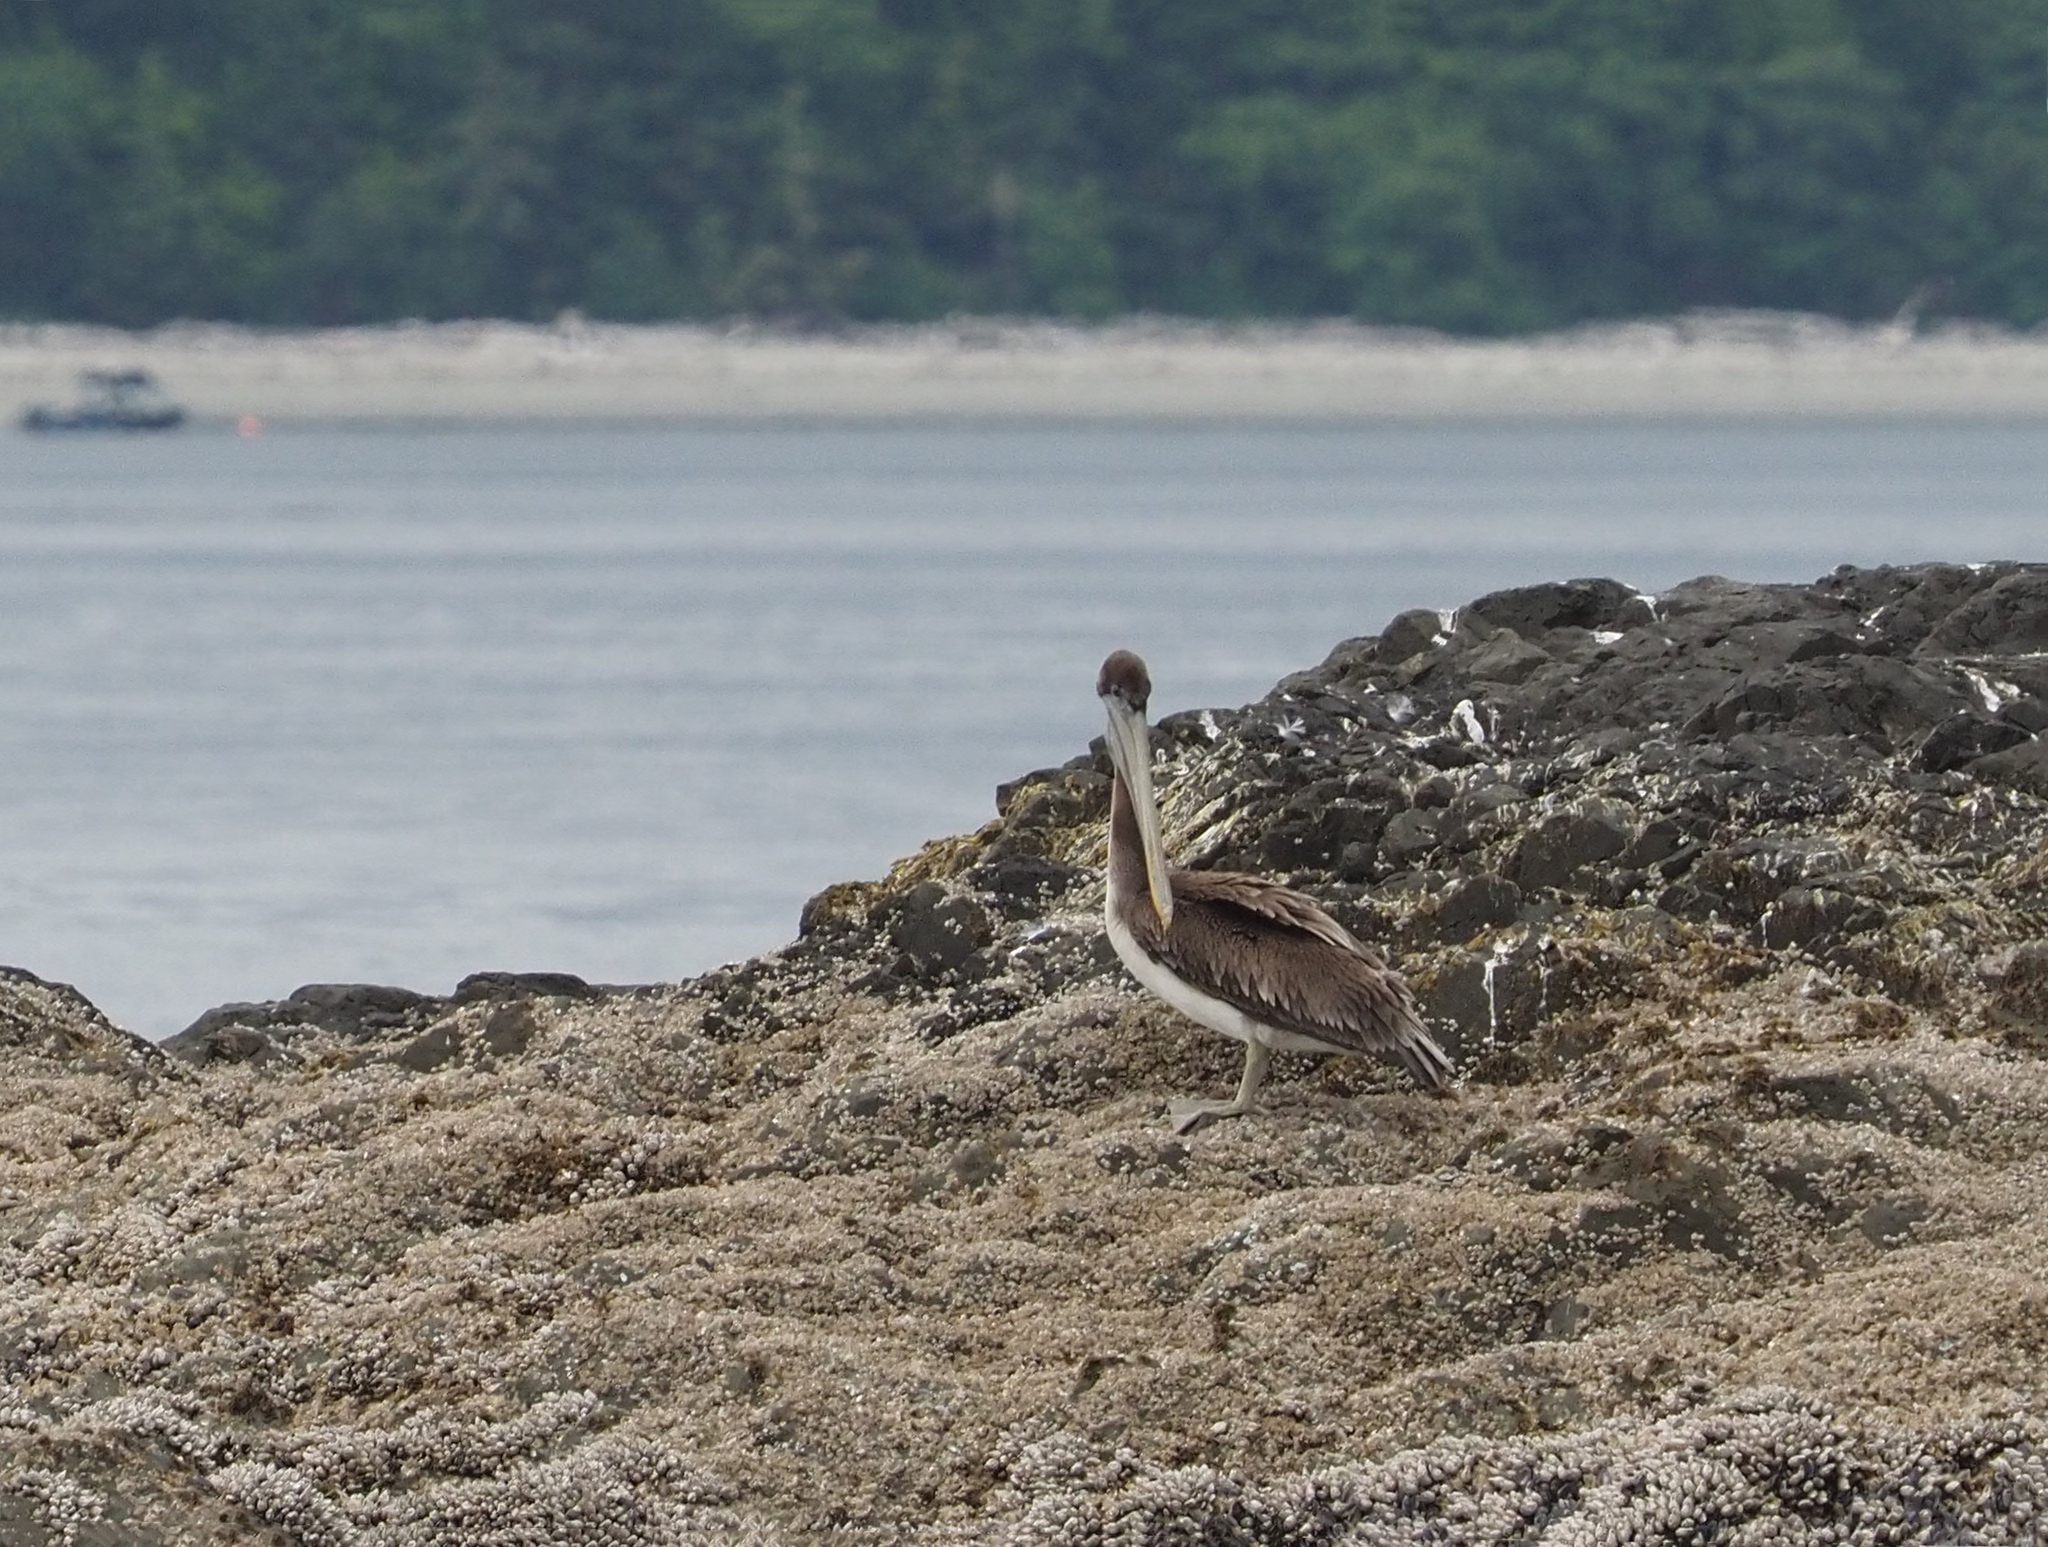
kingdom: Animalia
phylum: Chordata
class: Aves
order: Pelecaniformes
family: Pelecanidae
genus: Pelecanus
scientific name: Pelecanus occidentalis
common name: Brown pelican
